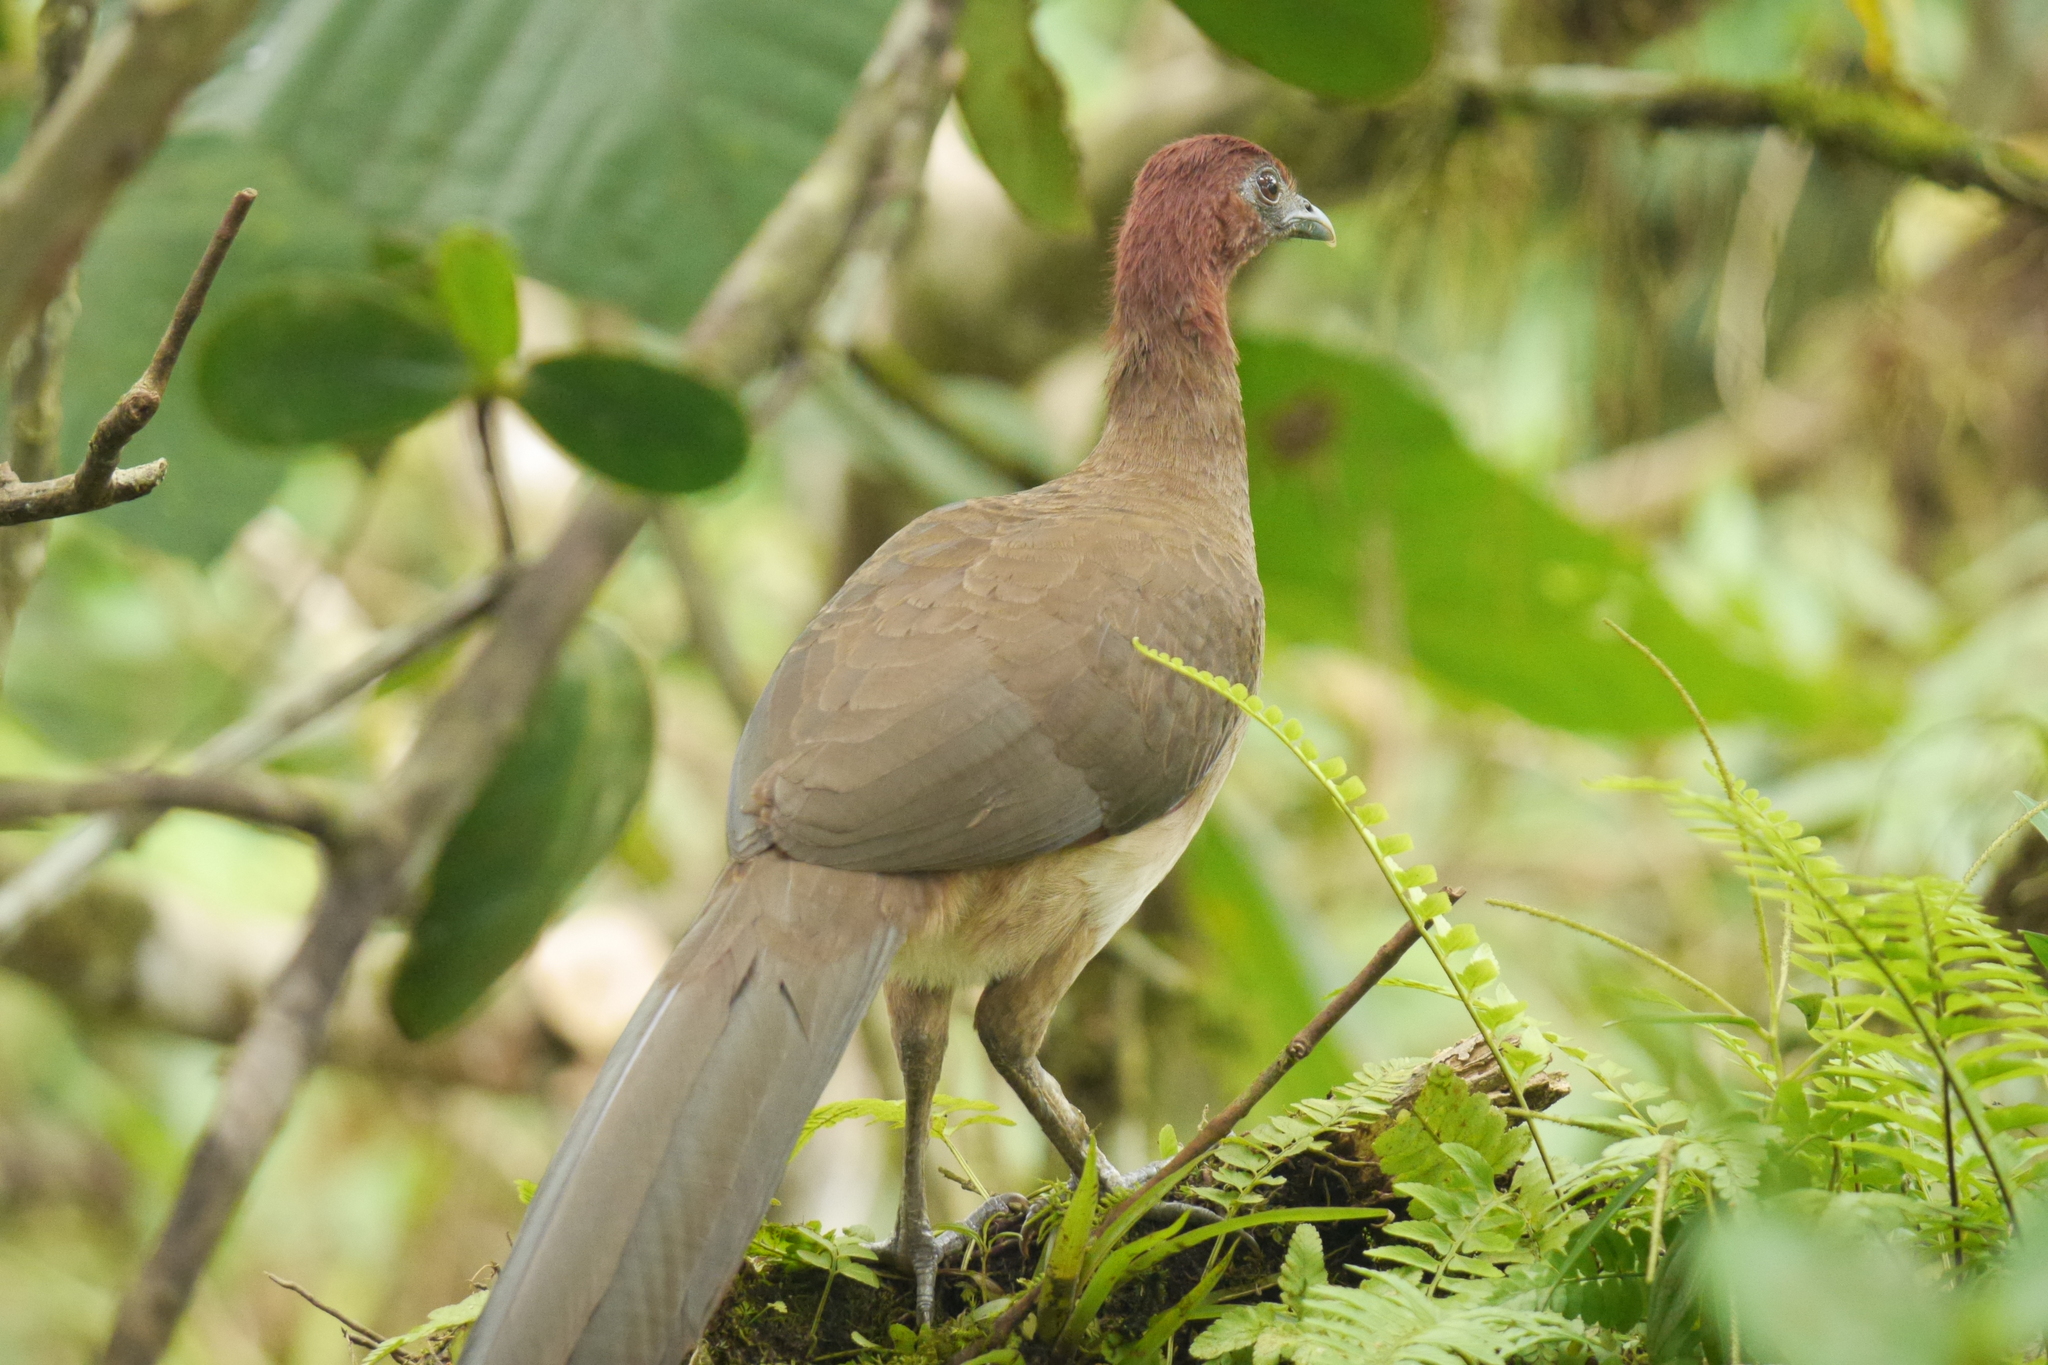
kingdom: Animalia
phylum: Chordata
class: Aves
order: Galliformes
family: Cracidae
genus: Ortalis
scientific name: Ortalis erythroptera
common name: Rufous-headed chachalaca
